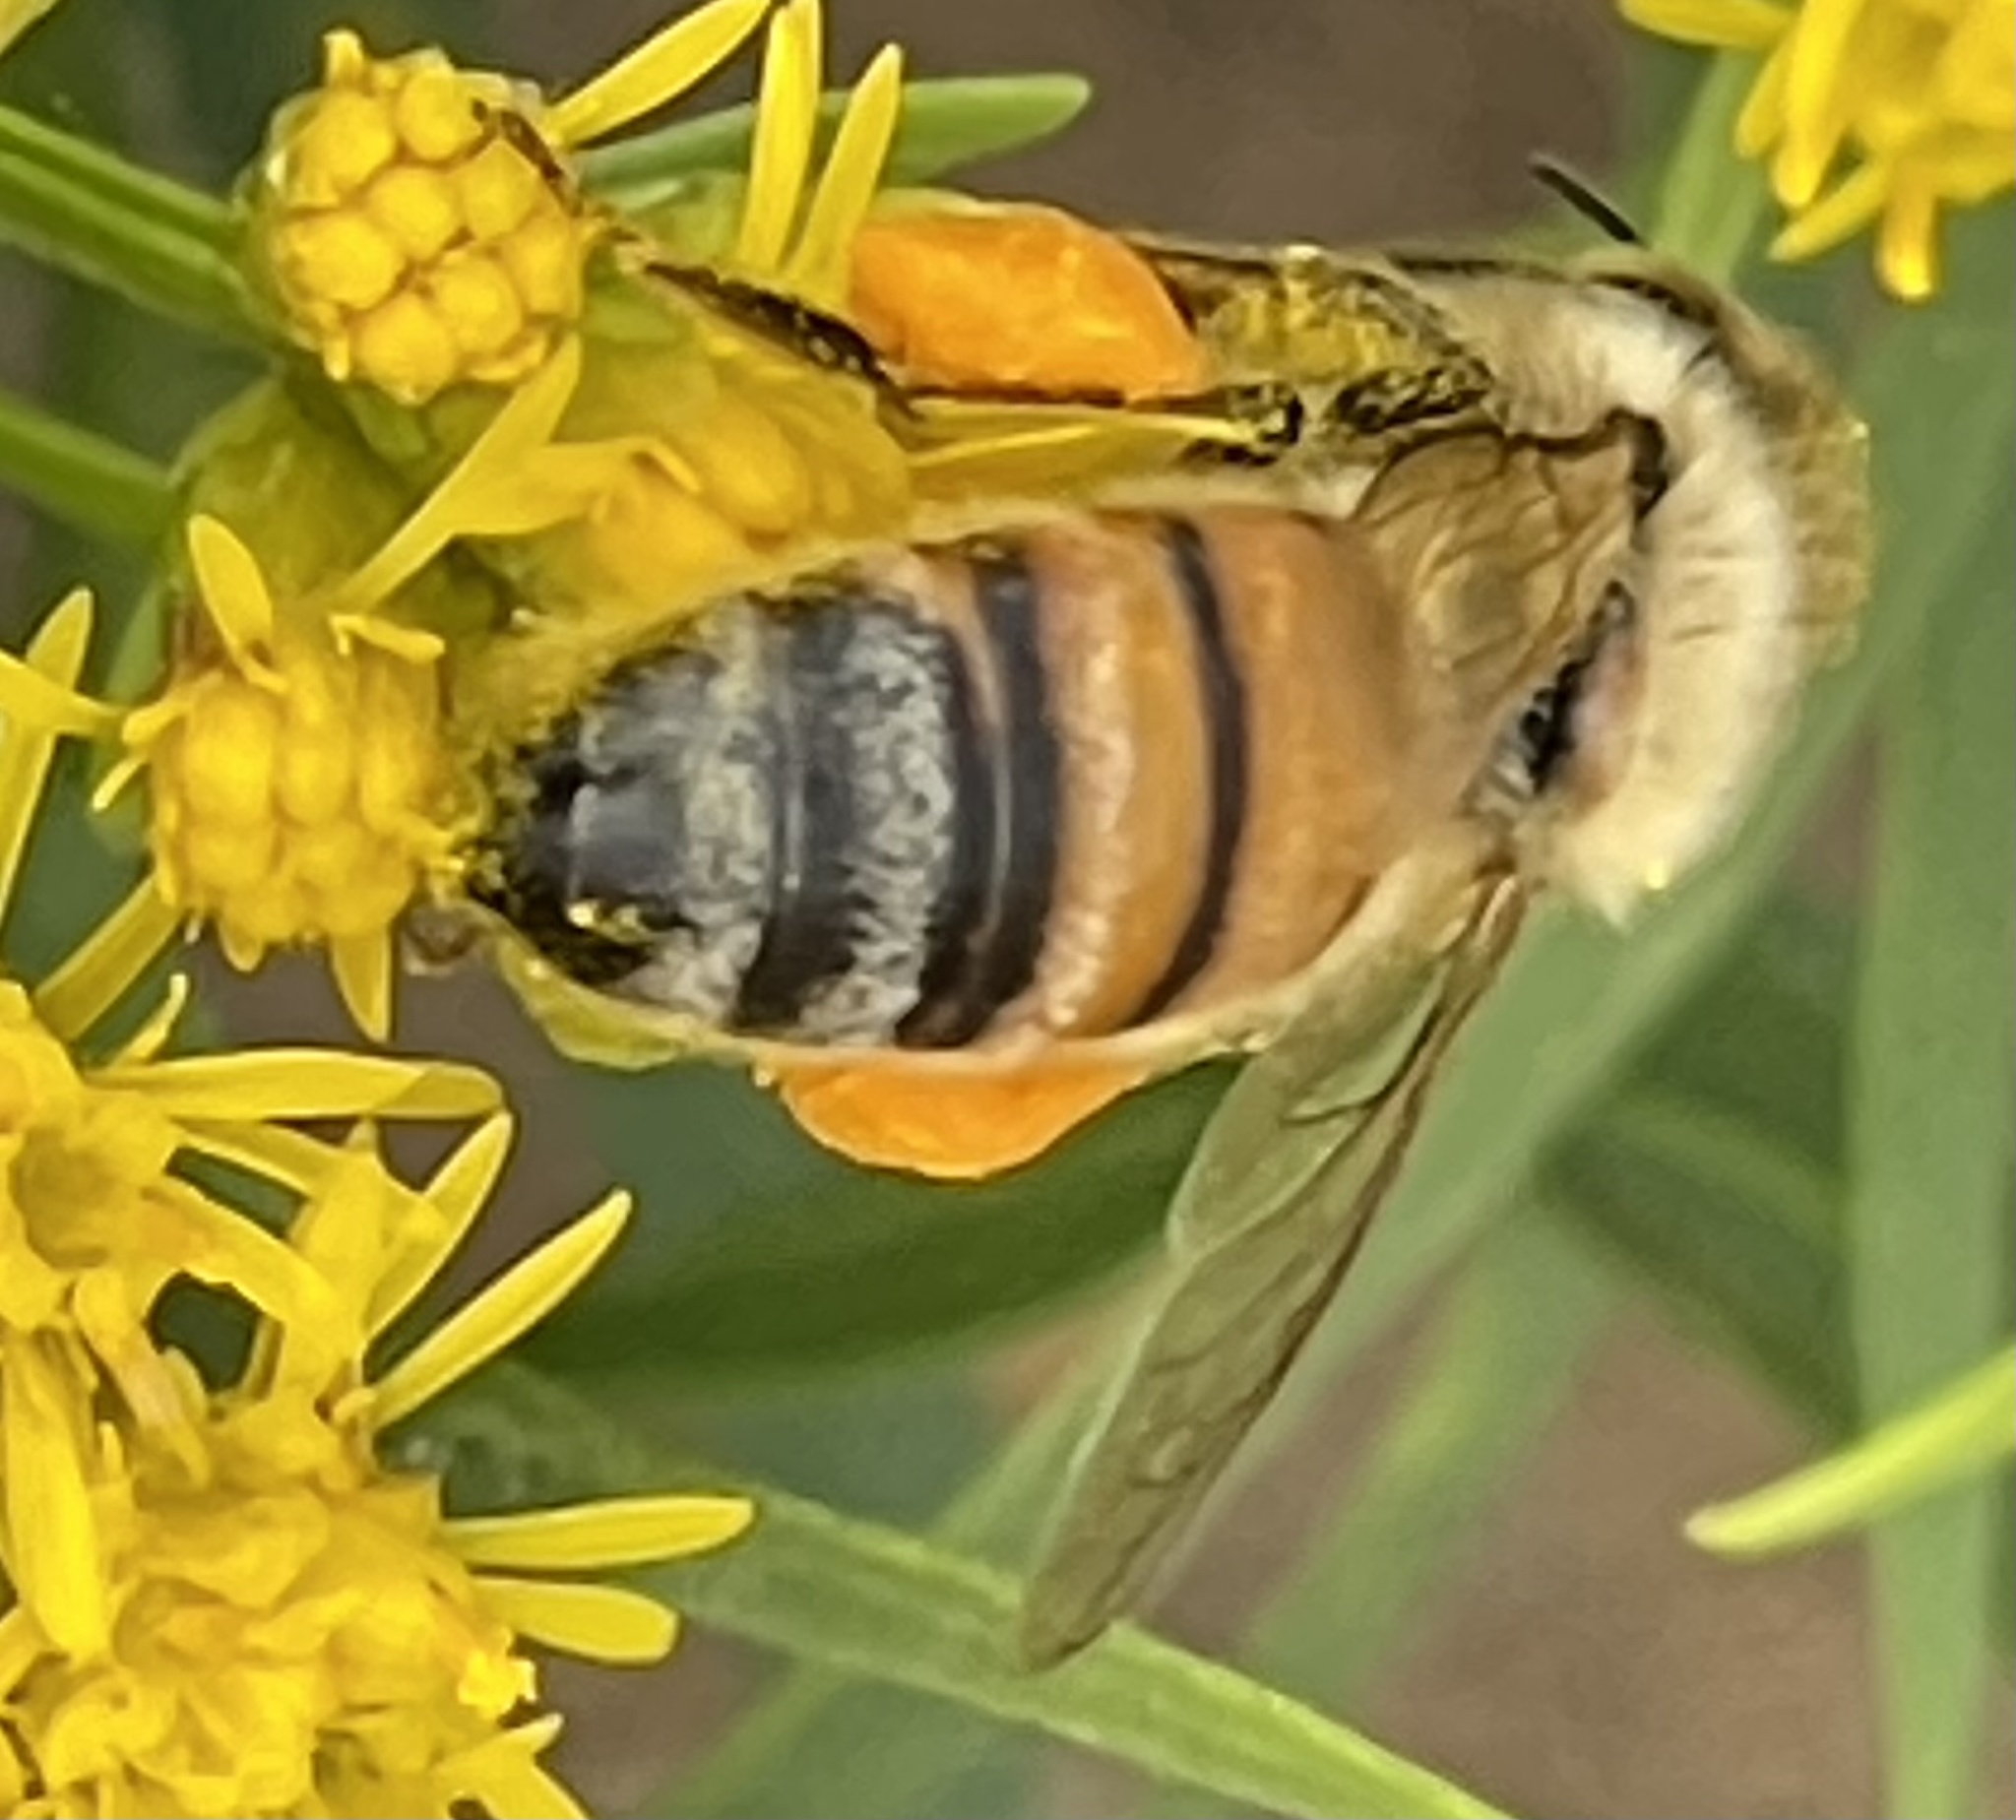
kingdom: Animalia
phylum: Arthropoda
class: Insecta
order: Hymenoptera
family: Apidae
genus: Apis
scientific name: Apis mellifera
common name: Honey bee
